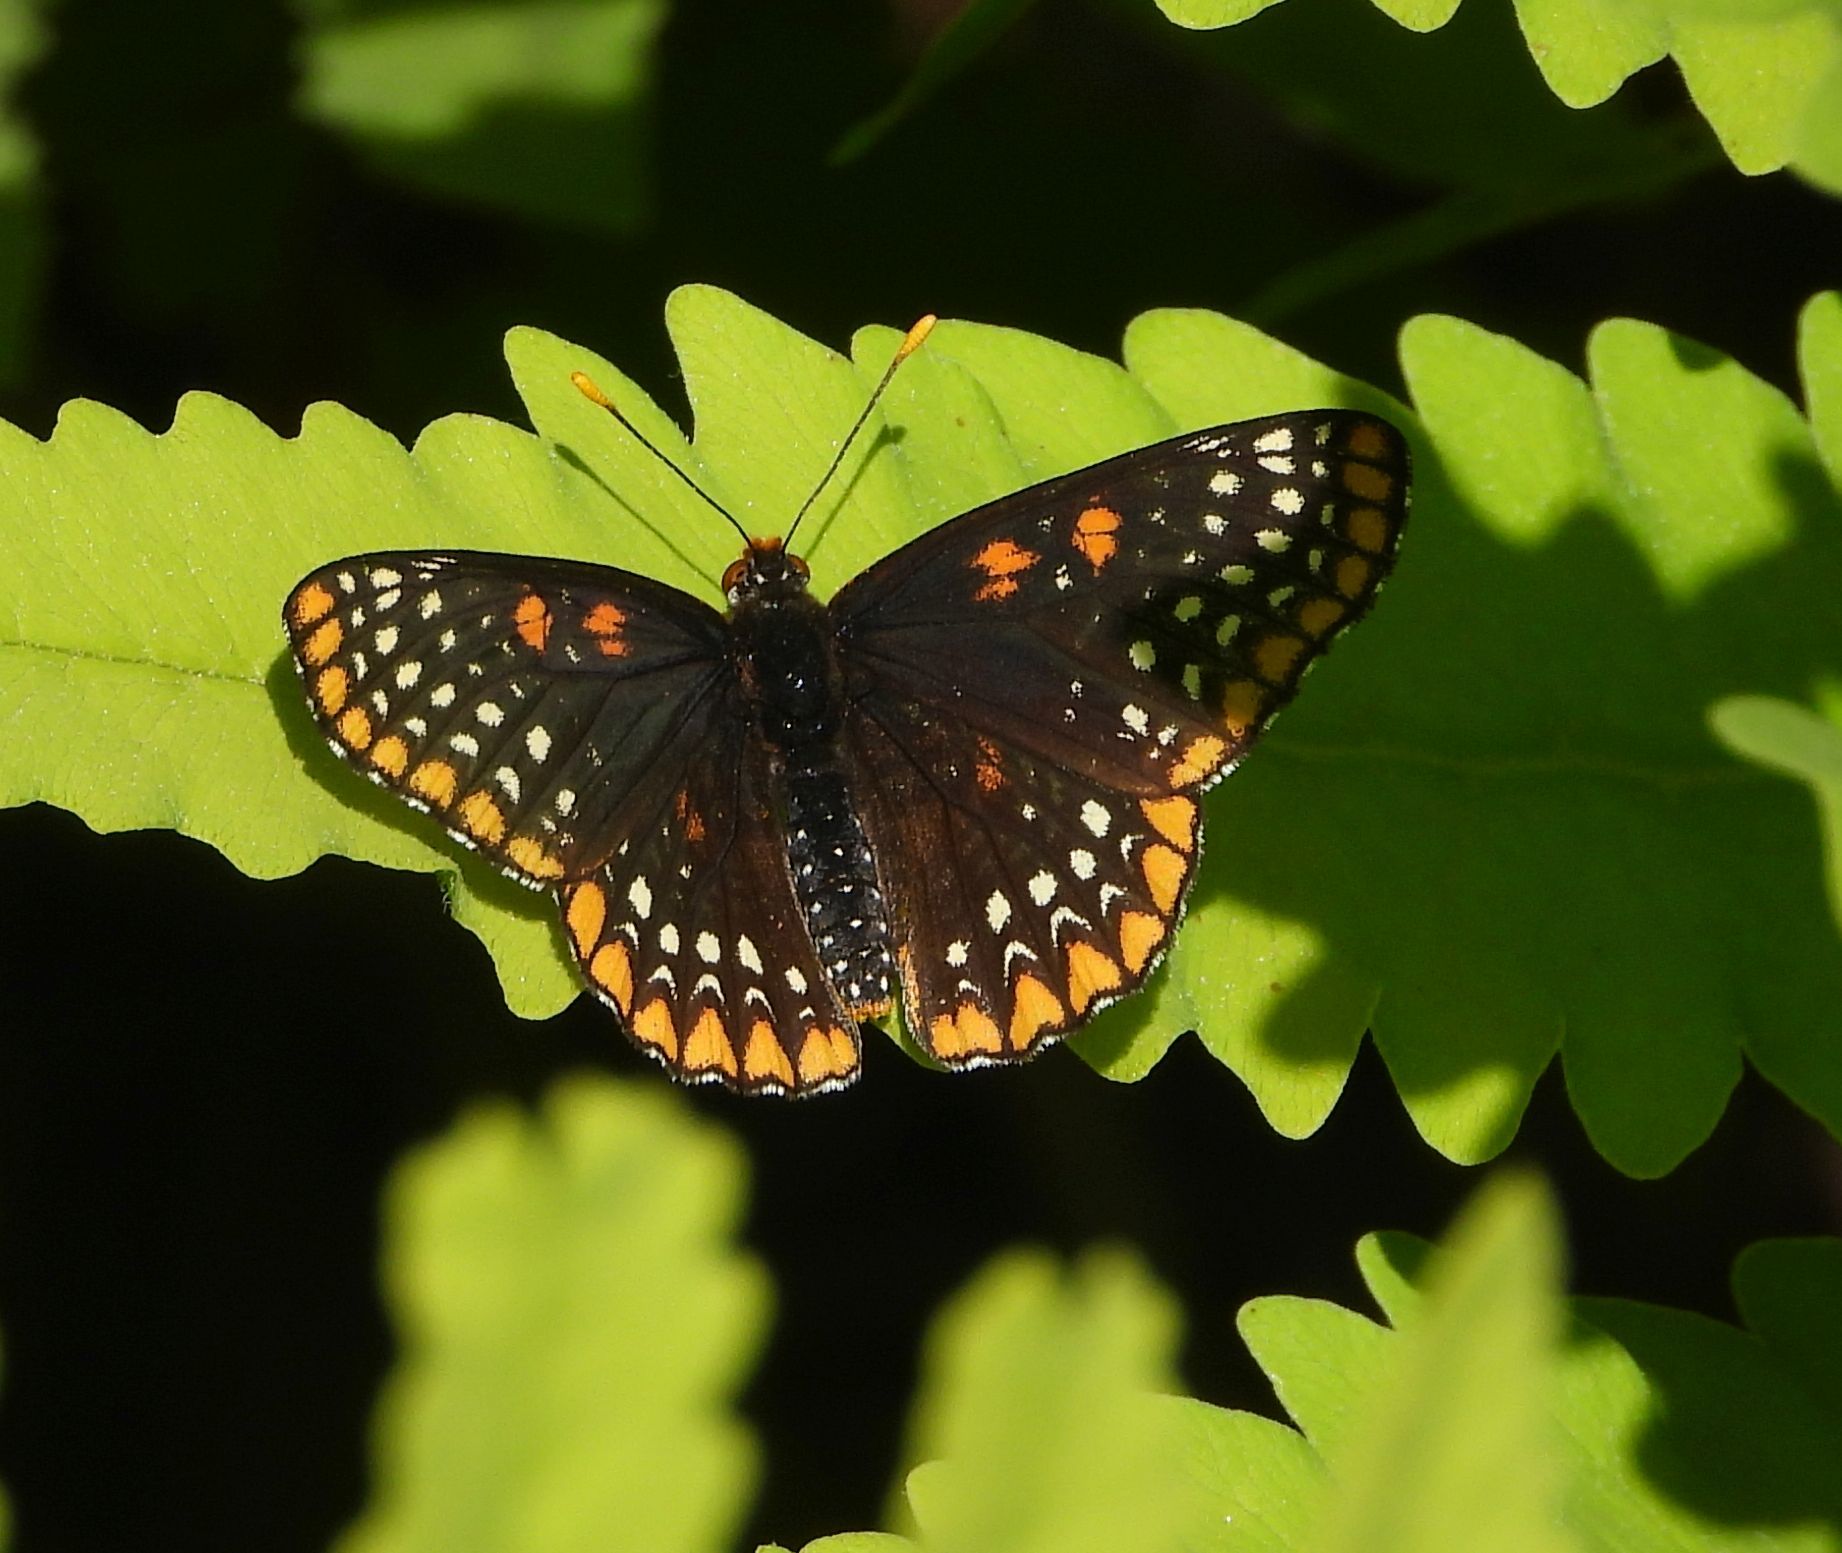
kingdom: Animalia
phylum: Arthropoda
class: Insecta
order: Lepidoptera
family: Nymphalidae
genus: Euphydryas
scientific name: Euphydryas phaeton
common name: Baltimore checkerspot
